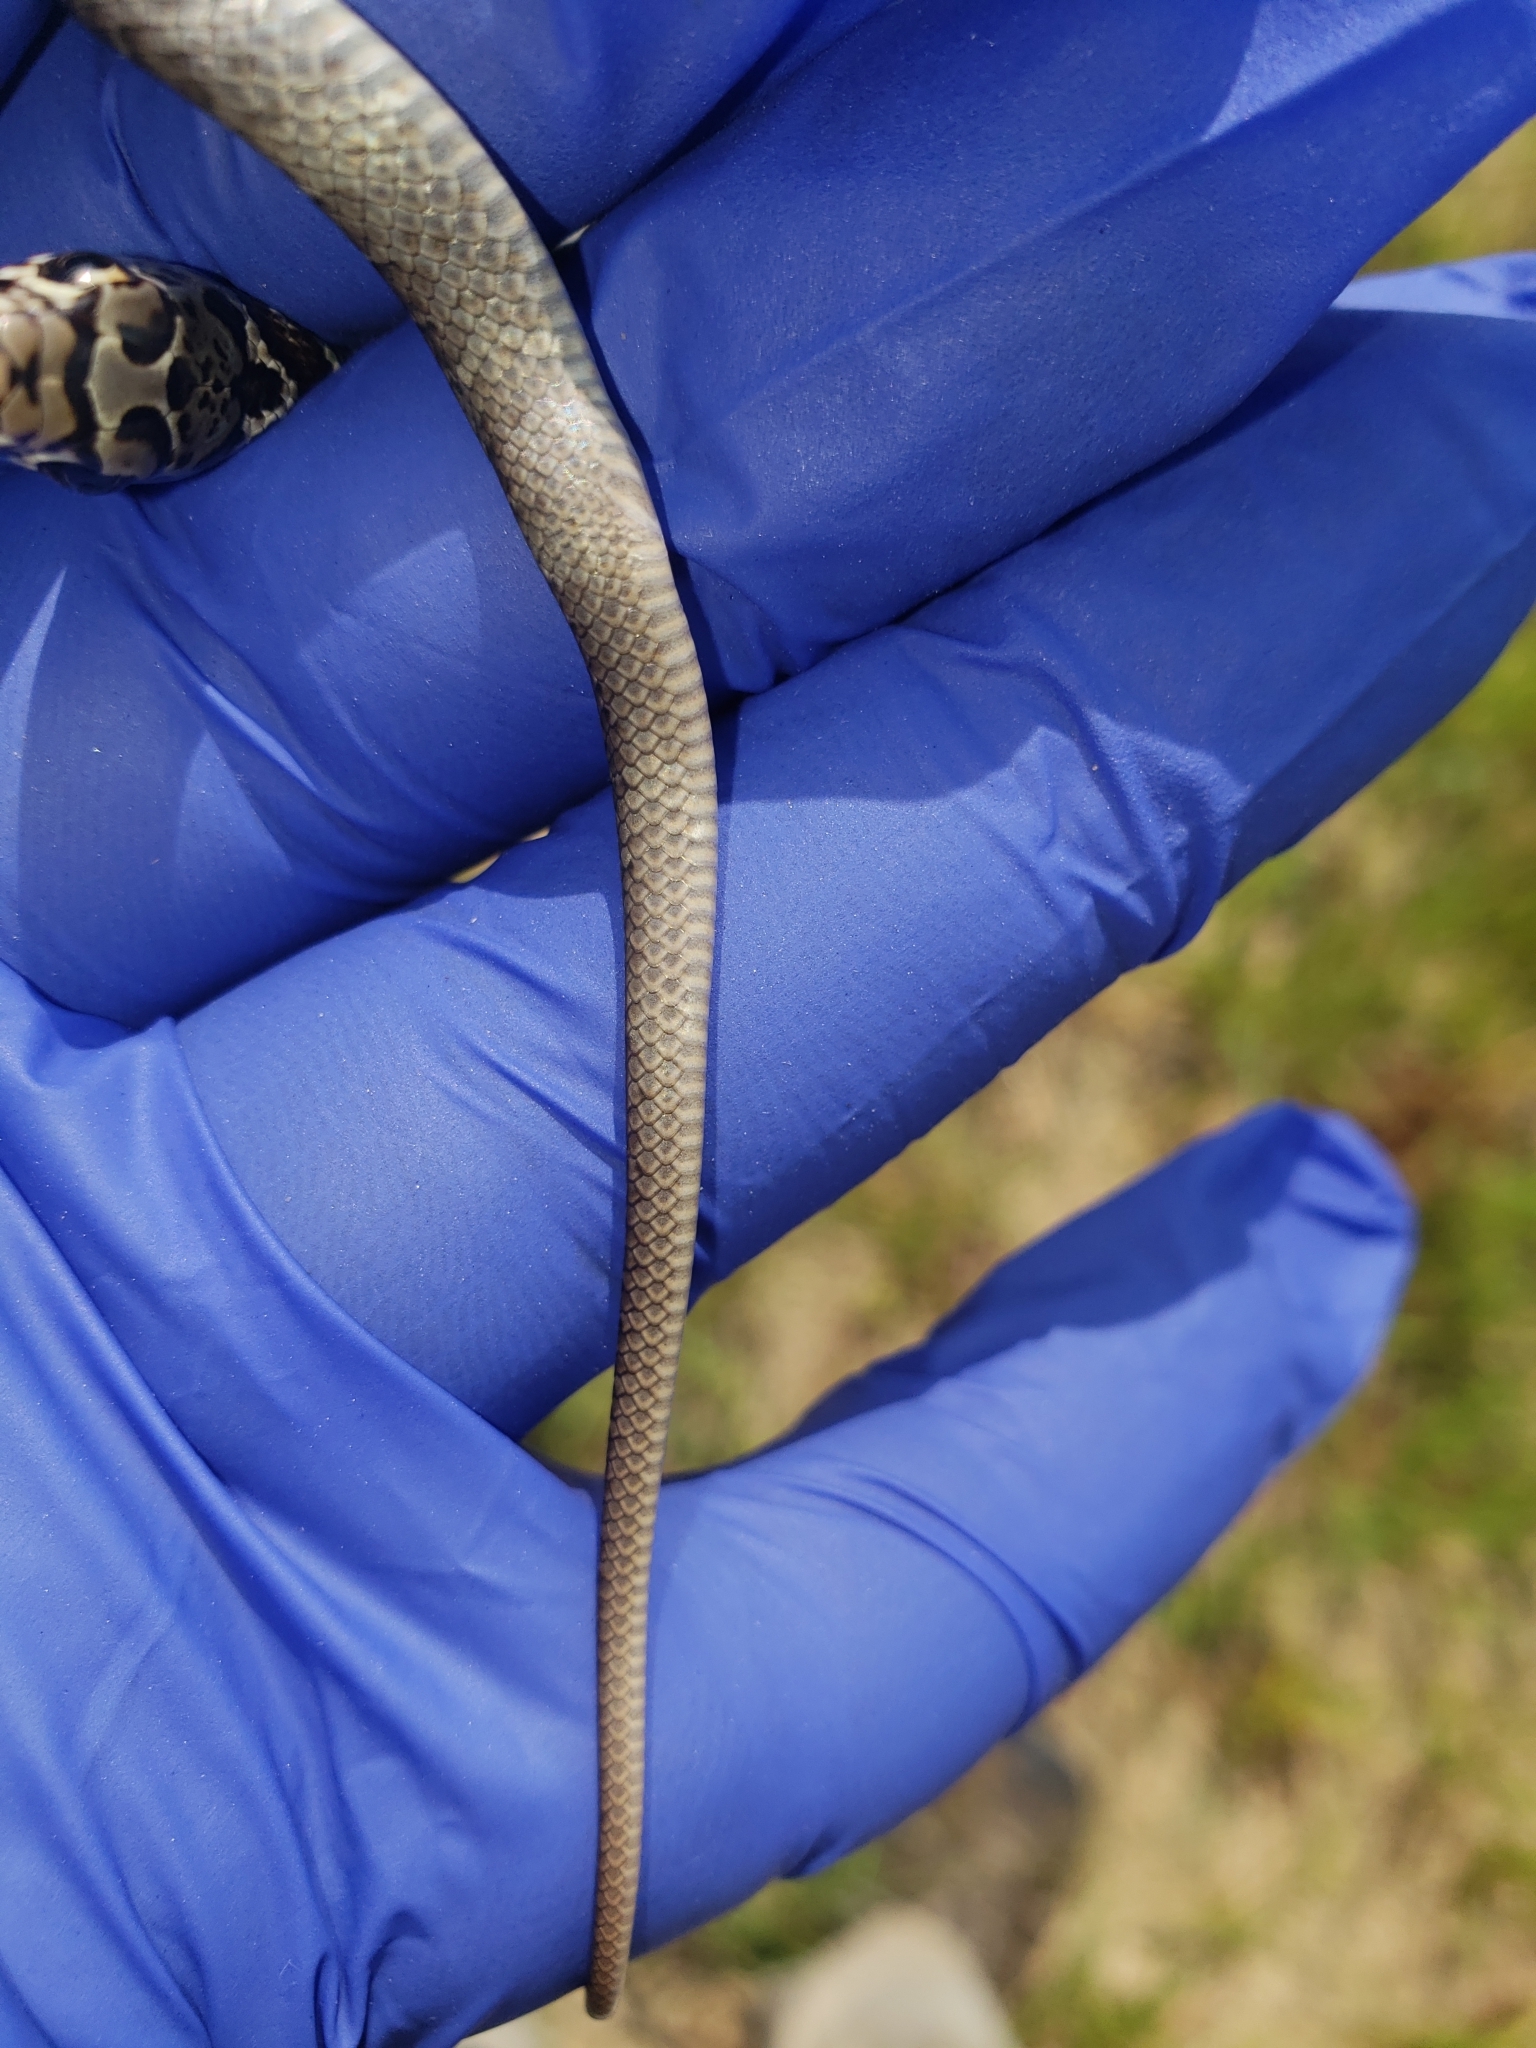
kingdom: Animalia
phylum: Chordata
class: Squamata
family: Colubridae
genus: Coluber
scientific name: Coluber constrictor
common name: Eastern racer
